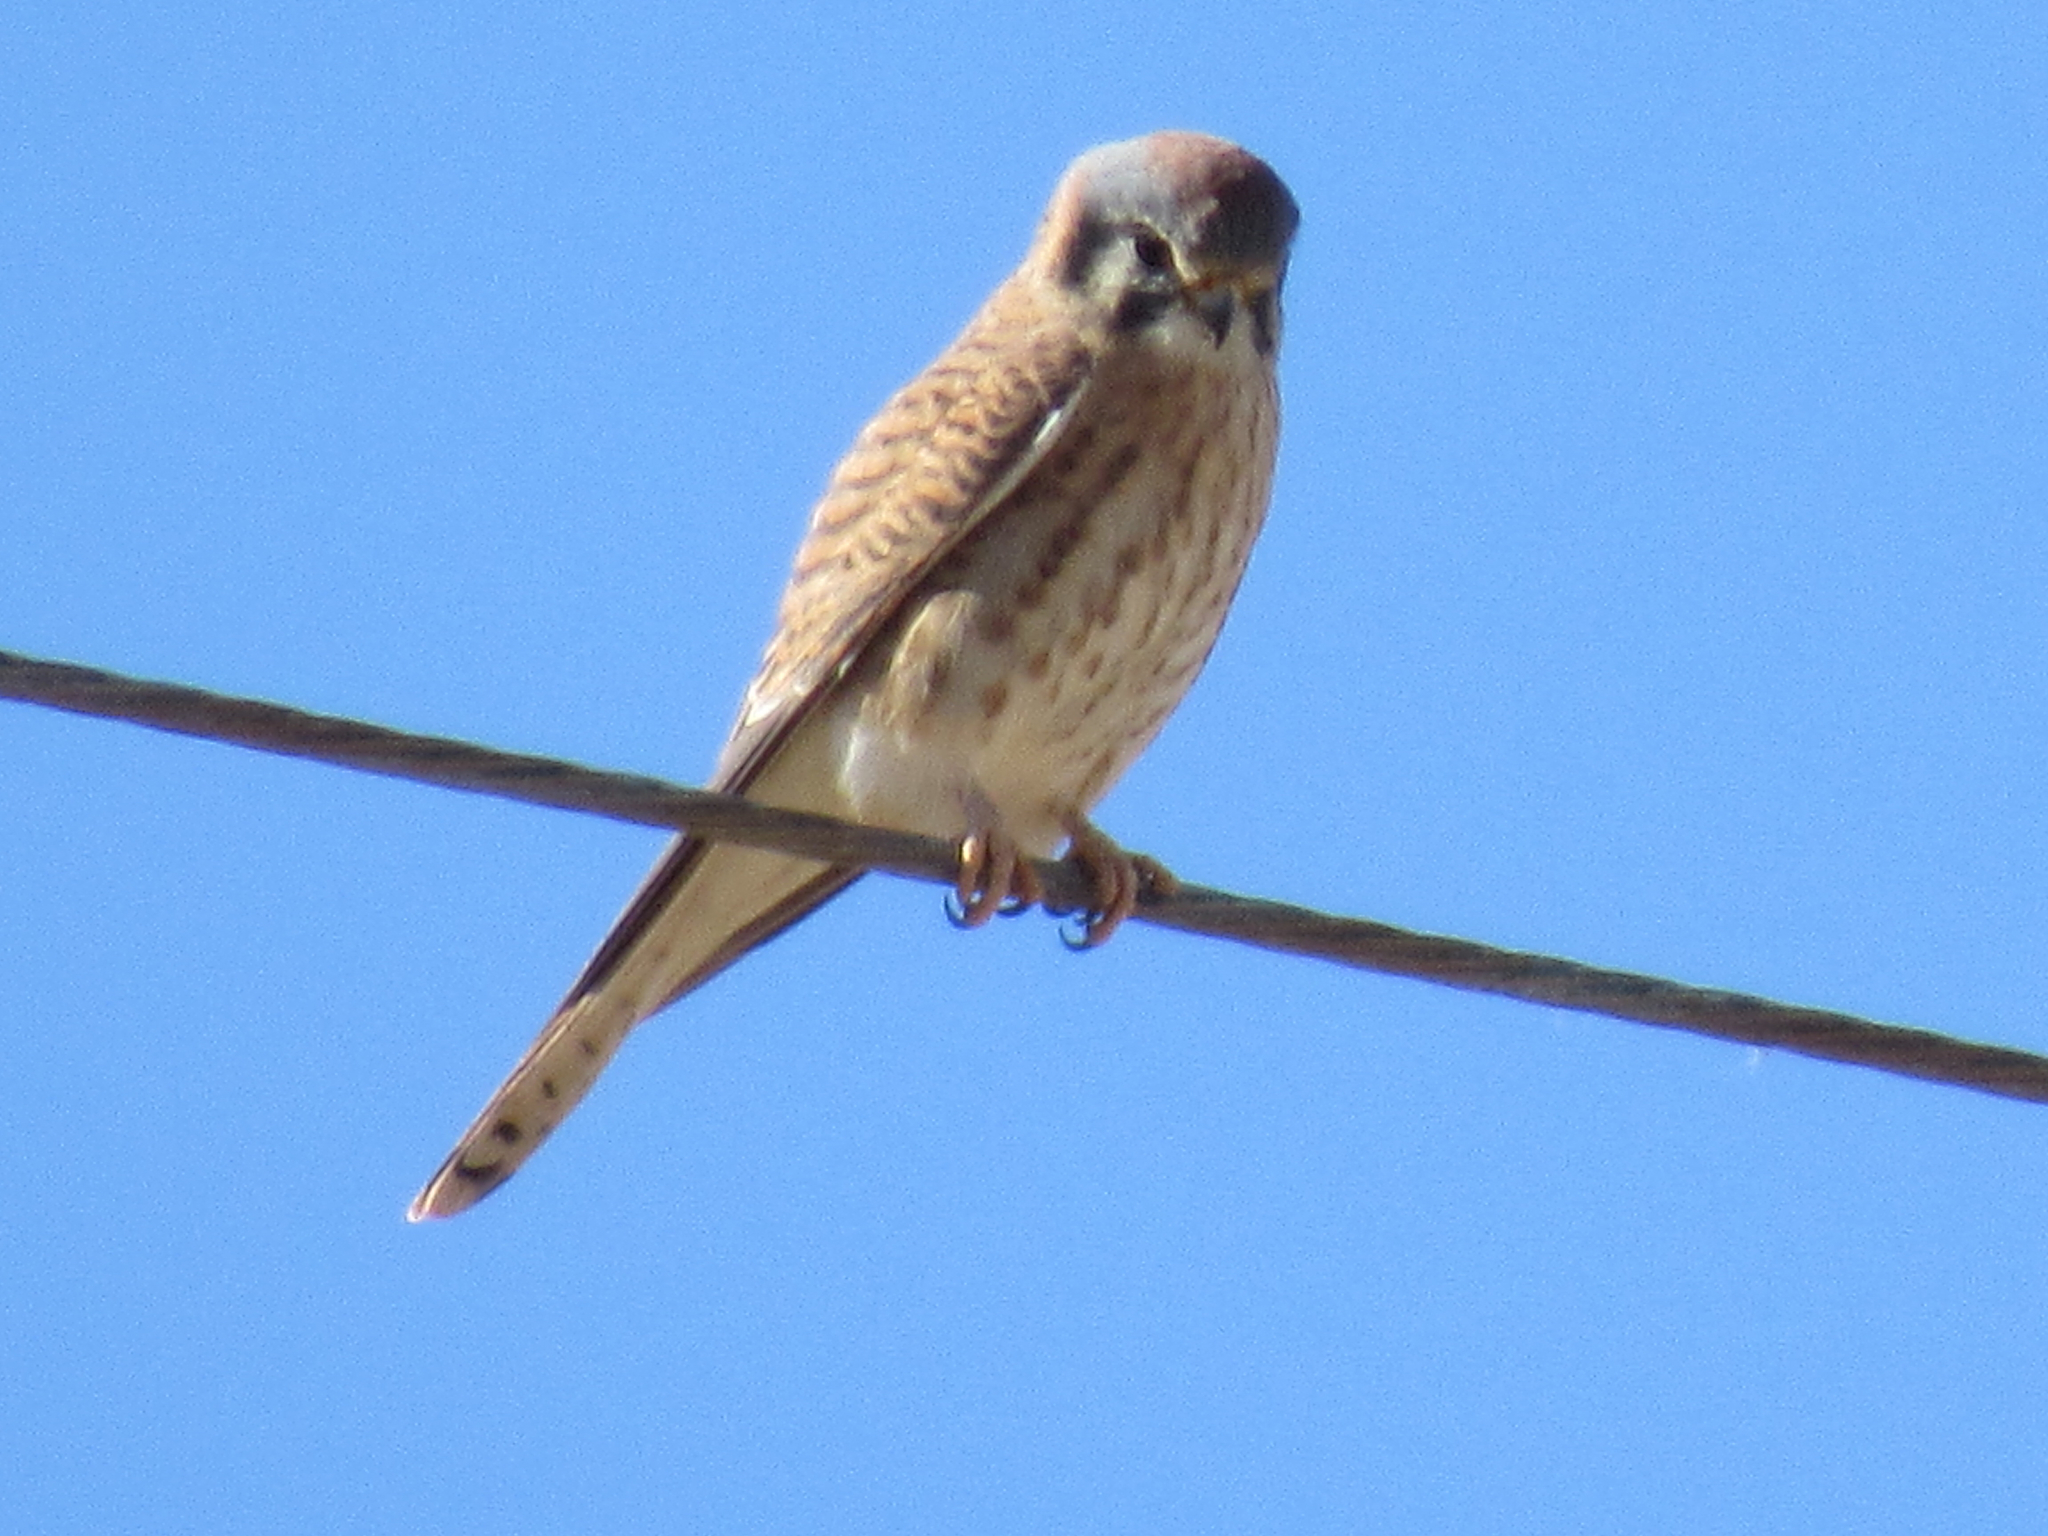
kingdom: Animalia
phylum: Chordata
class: Aves
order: Falconiformes
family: Falconidae
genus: Falco
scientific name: Falco sparverius
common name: American kestrel
